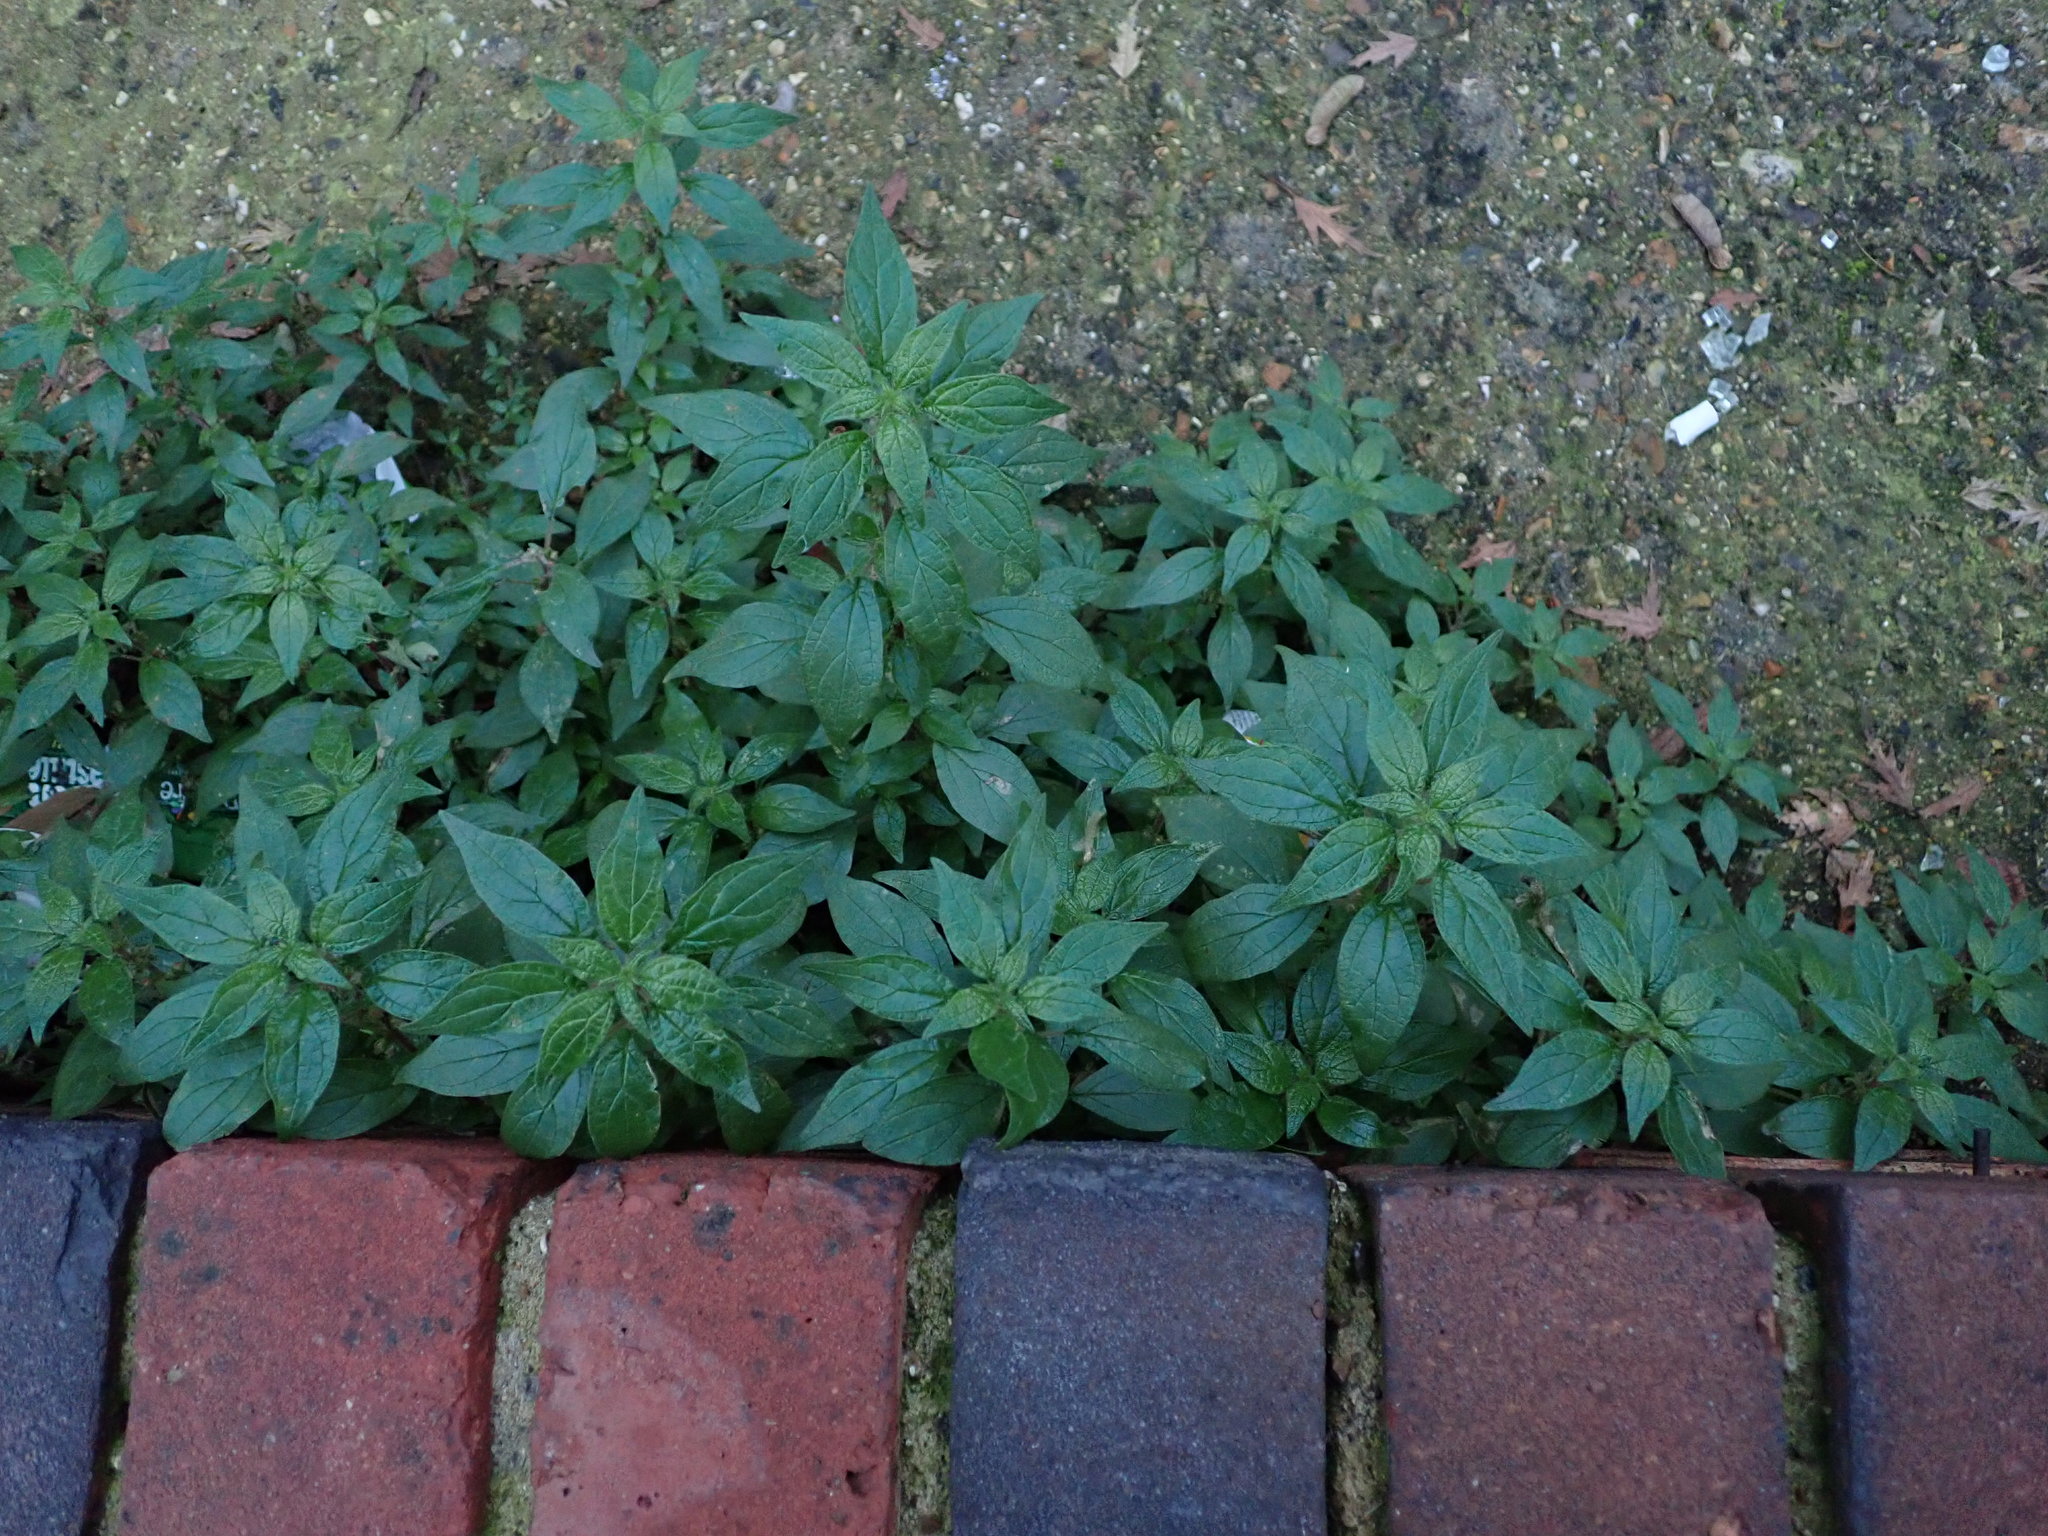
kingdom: Plantae
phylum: Tracheophyta
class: Magnoliopsida
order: Rosales
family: Urticaceae
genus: Parietaria
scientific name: Parietaria judaica
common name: Pellitory-of-the-wall
